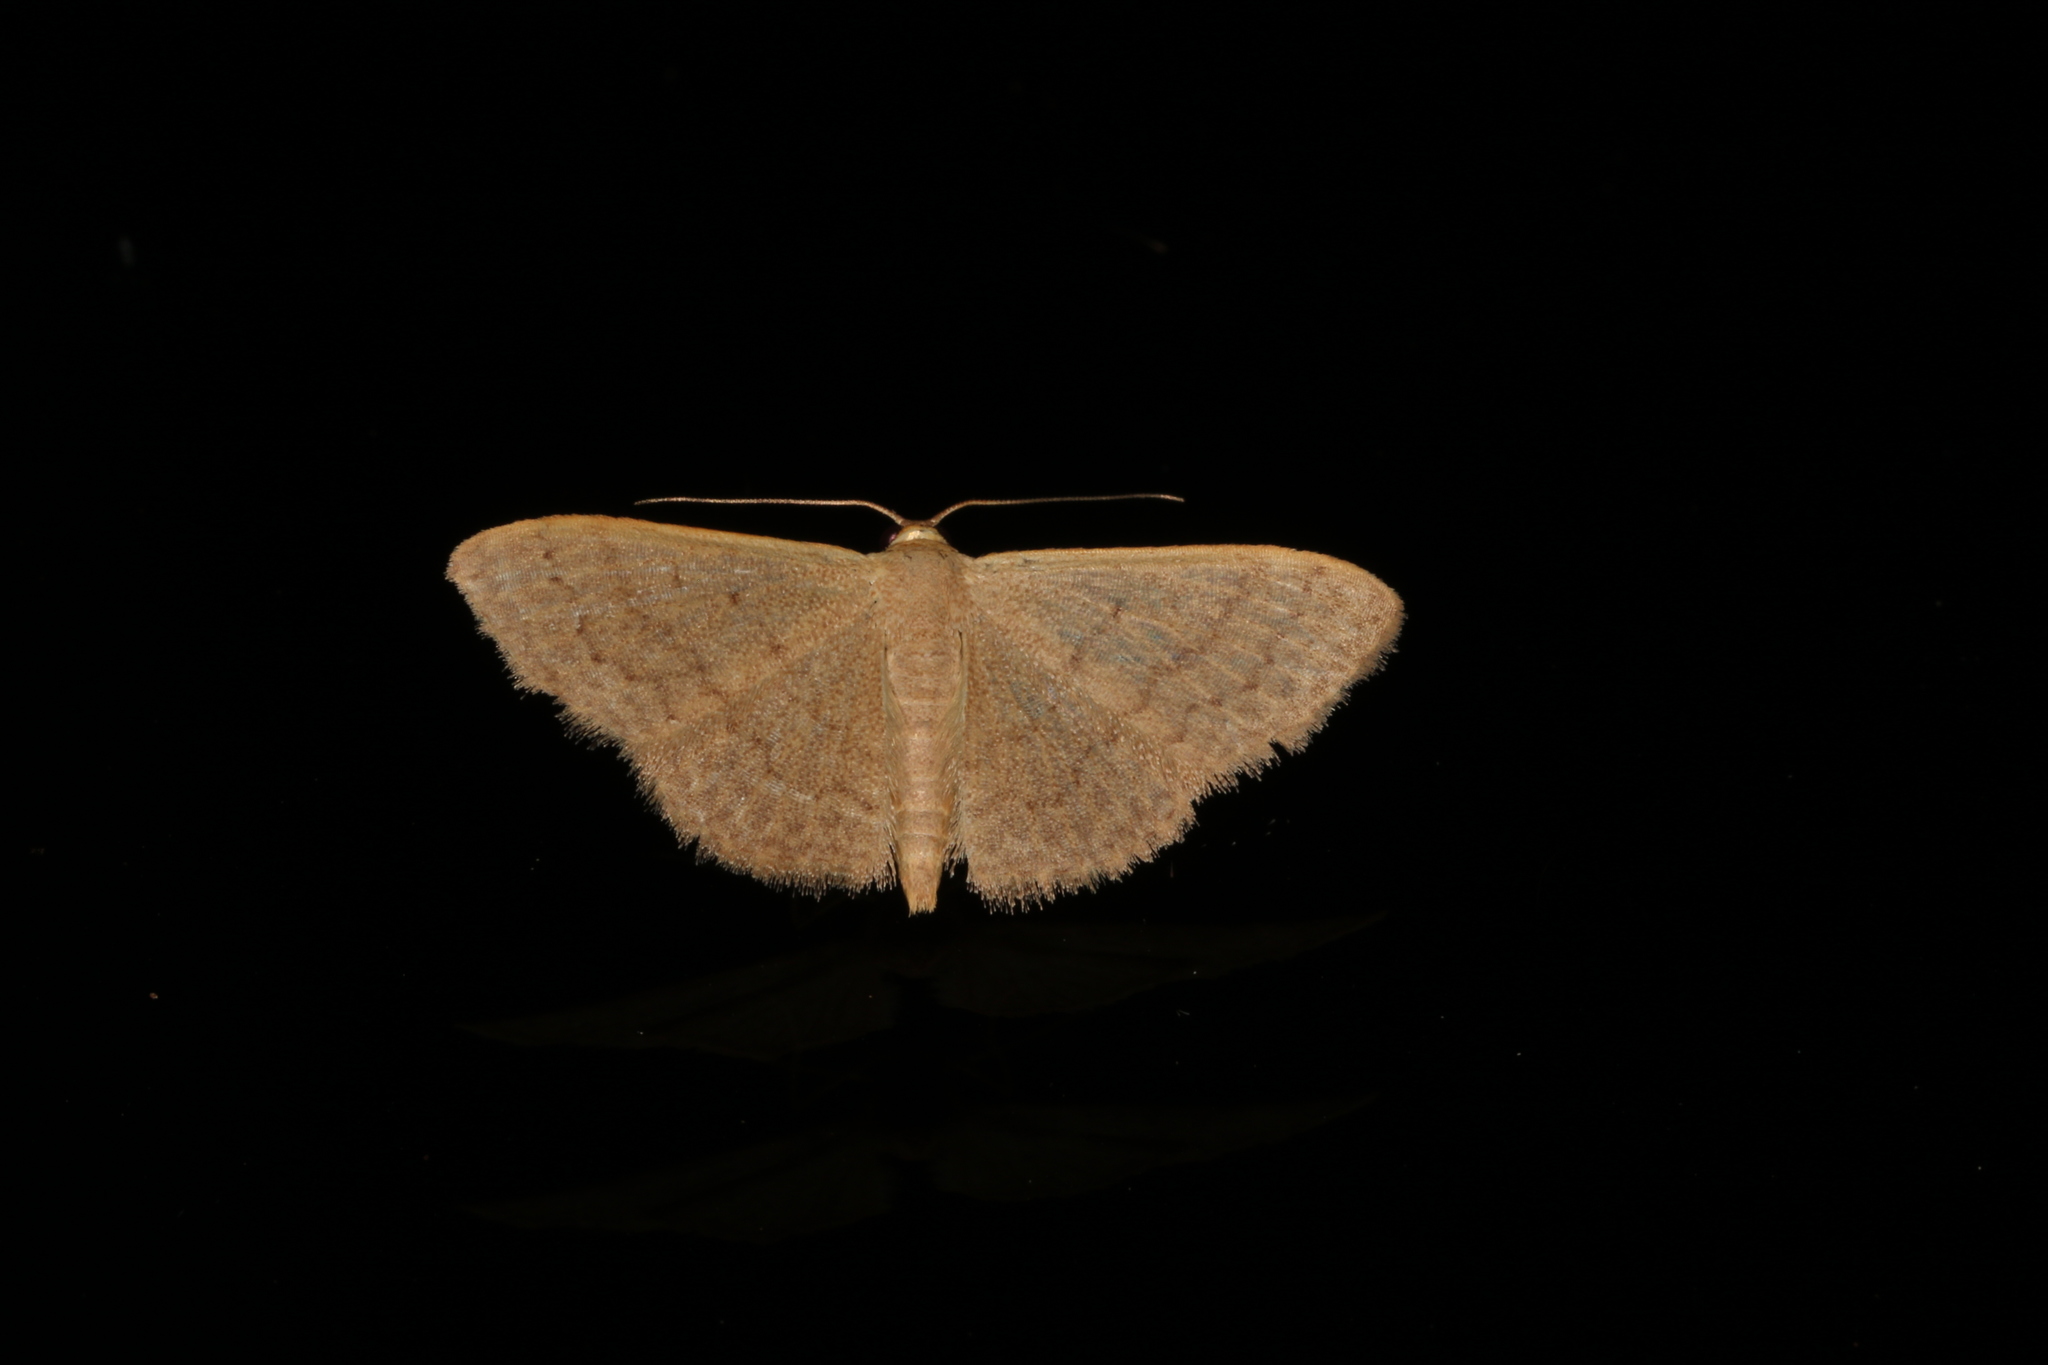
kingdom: Animalia
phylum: Arthropoda
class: Insecta
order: Lepidoptera
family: Geometridae
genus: Idaea
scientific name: Idaea uniformis
